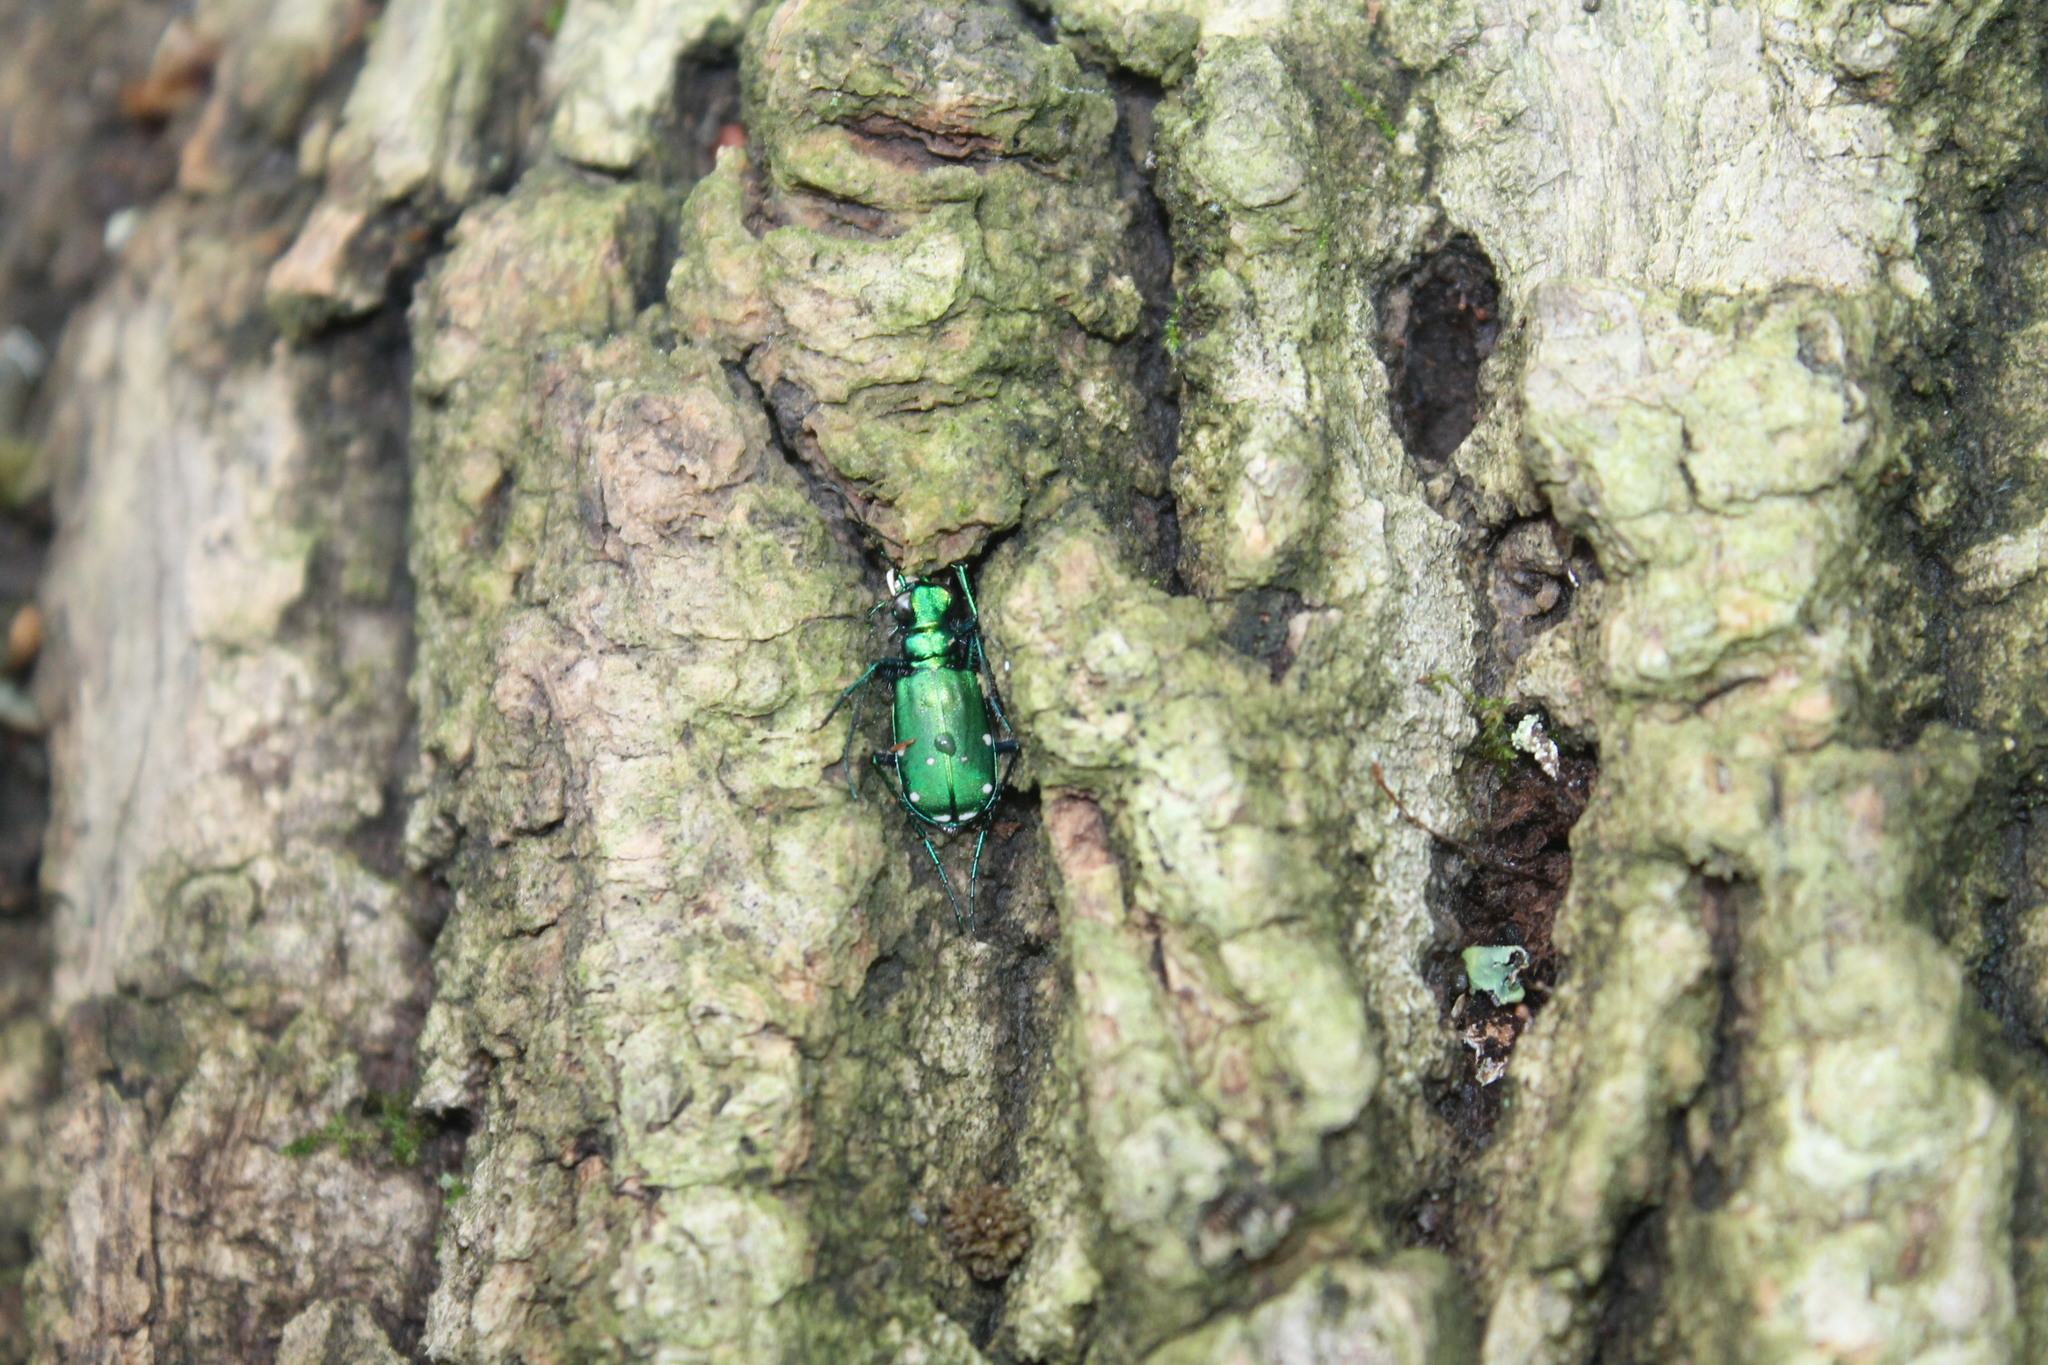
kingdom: Animalia
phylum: Arthropoda
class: Insecta
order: Coleoptera
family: Carabidae
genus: Cicindela
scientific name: Cicindela sexguttata
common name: Six-spotted tiger beetle
